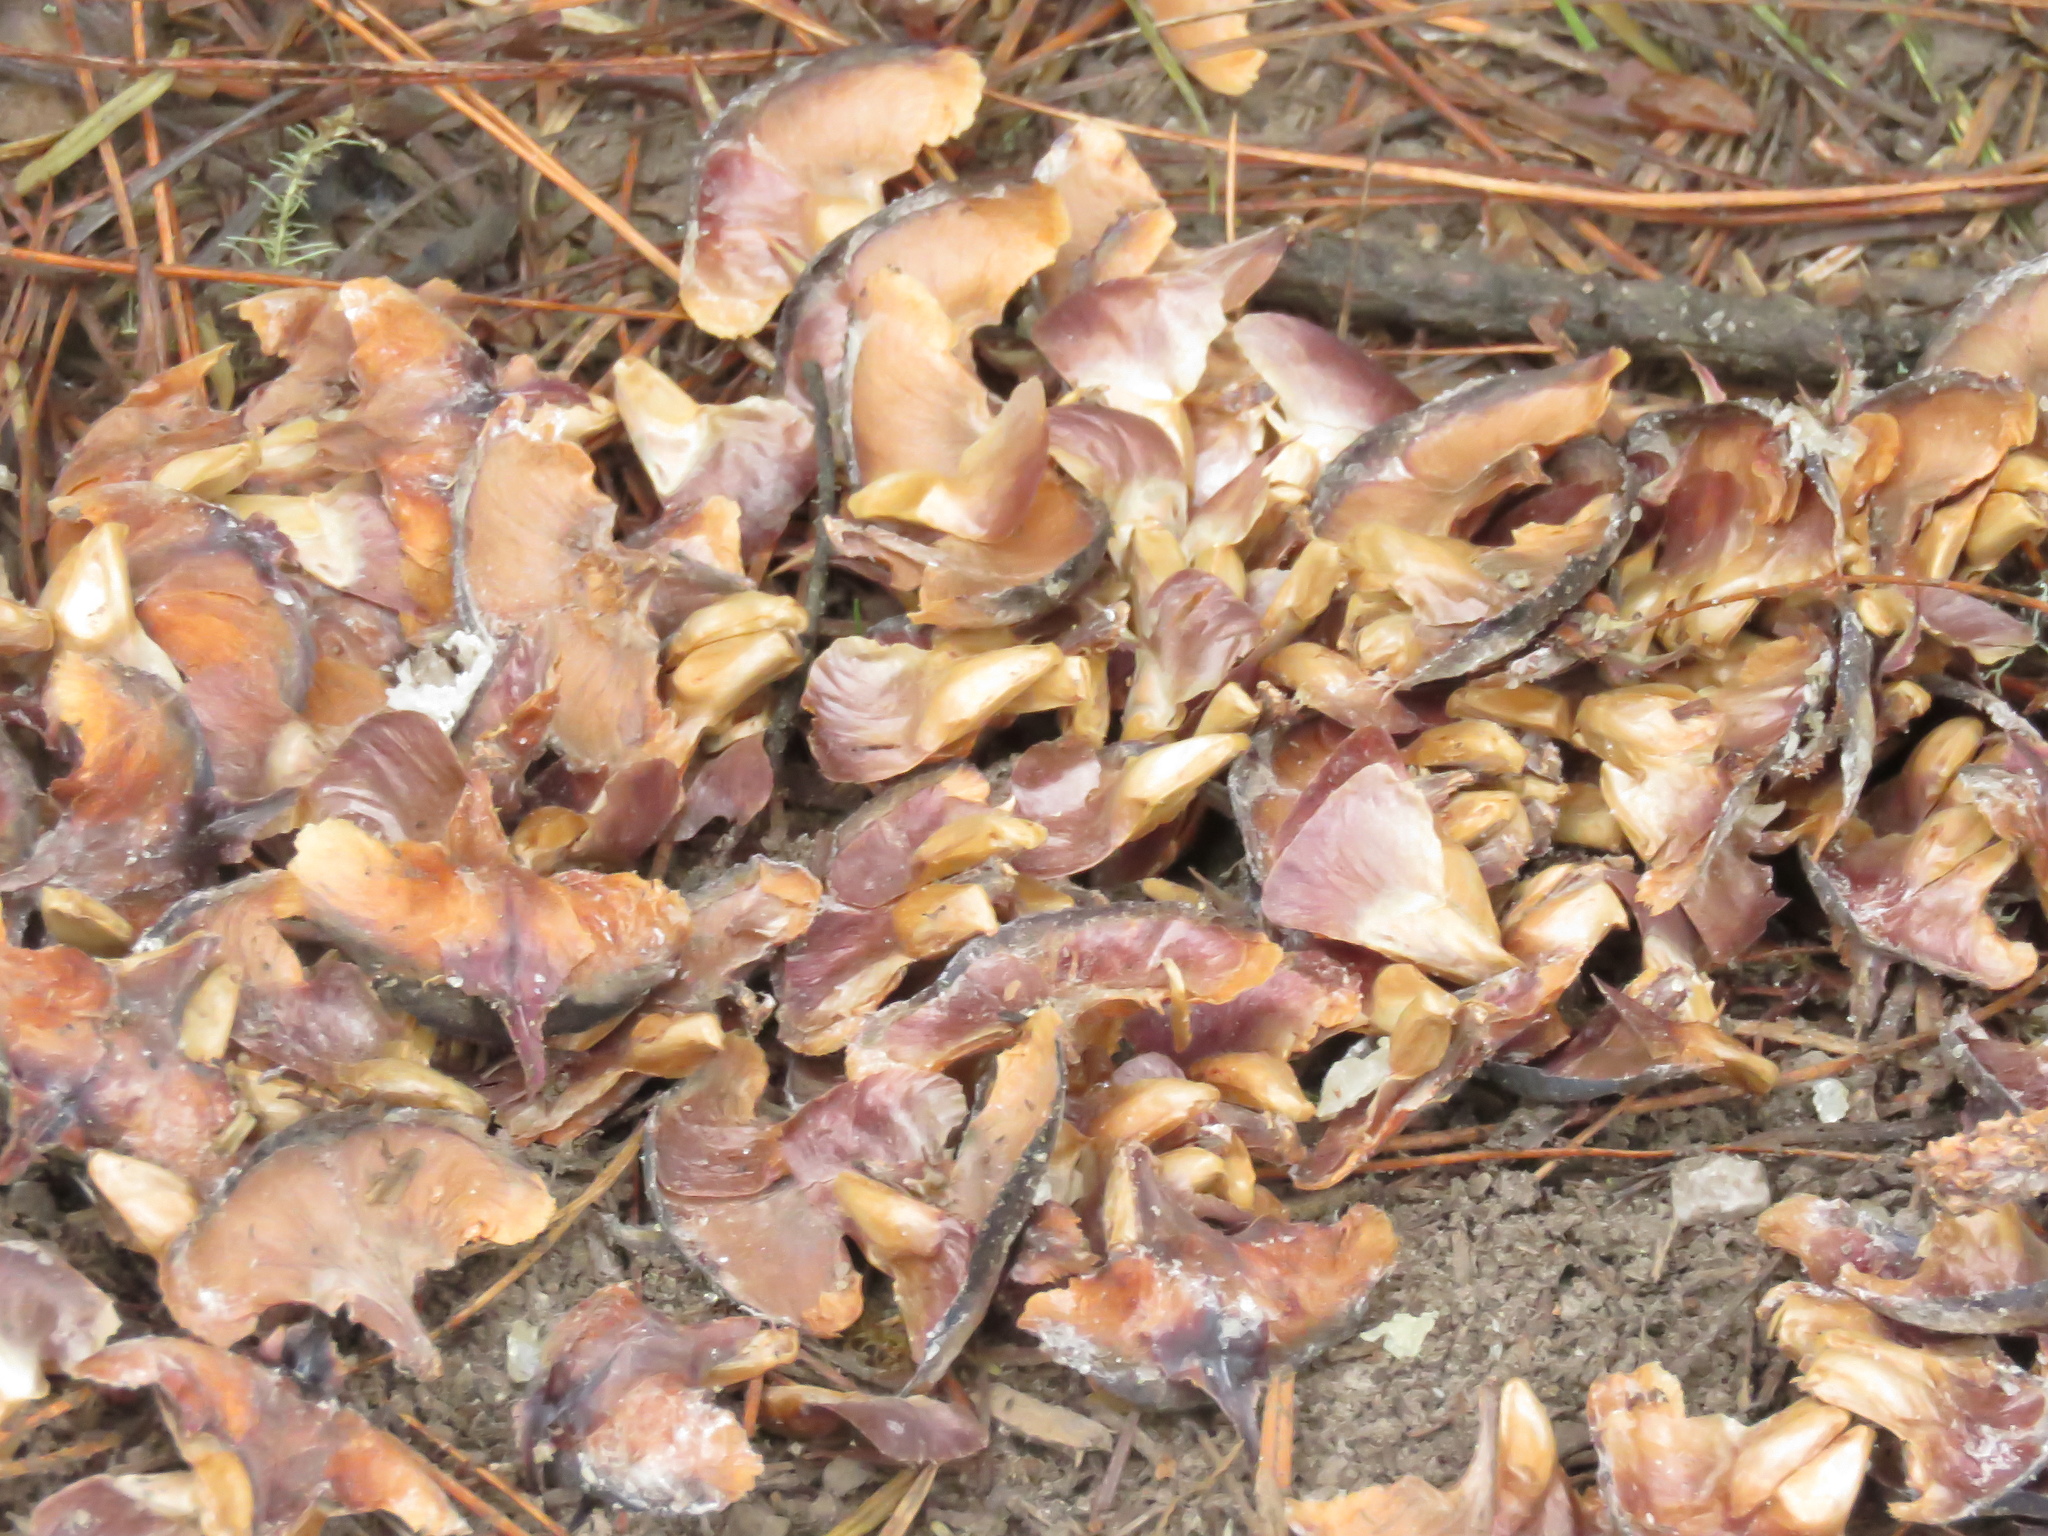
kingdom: Plantae
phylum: Tracheophyta
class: Pinopsida
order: Pinales
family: Pinaceae
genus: Abies
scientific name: Abies hickelii
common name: Hickel's fir
